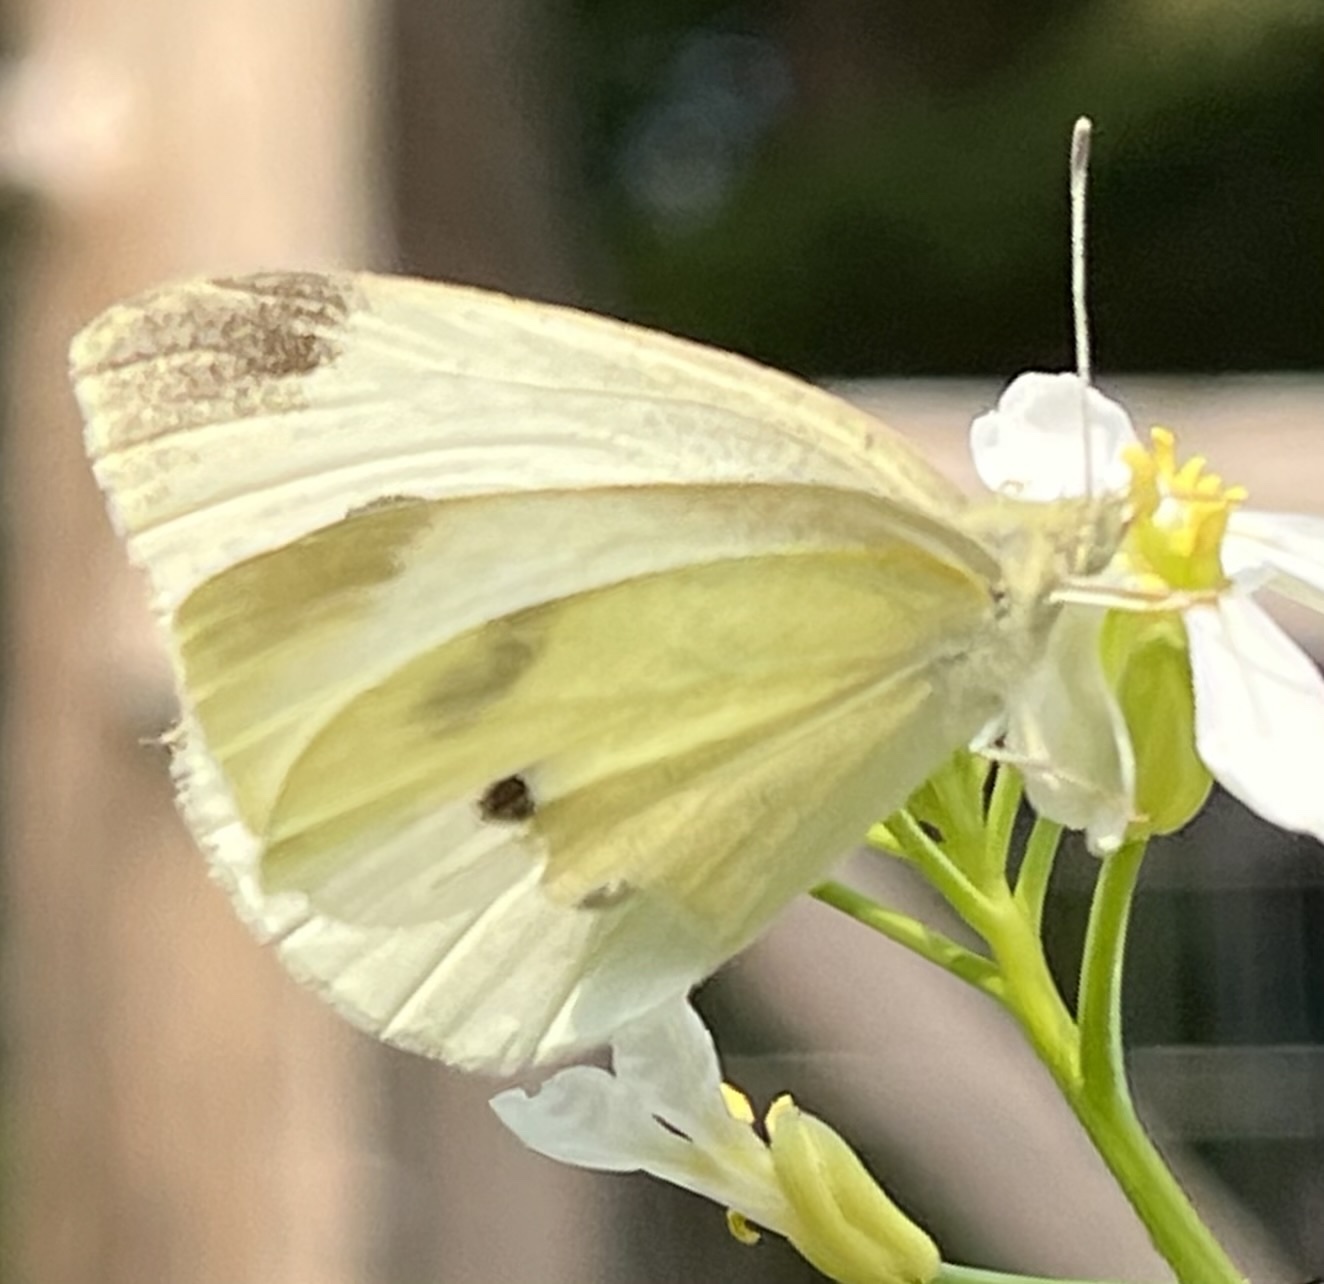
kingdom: Animalia
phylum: Arthropoda
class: Insecta
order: Lepidoptera
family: Pieridae
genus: Pieris
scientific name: Pieris rapae
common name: Small white
